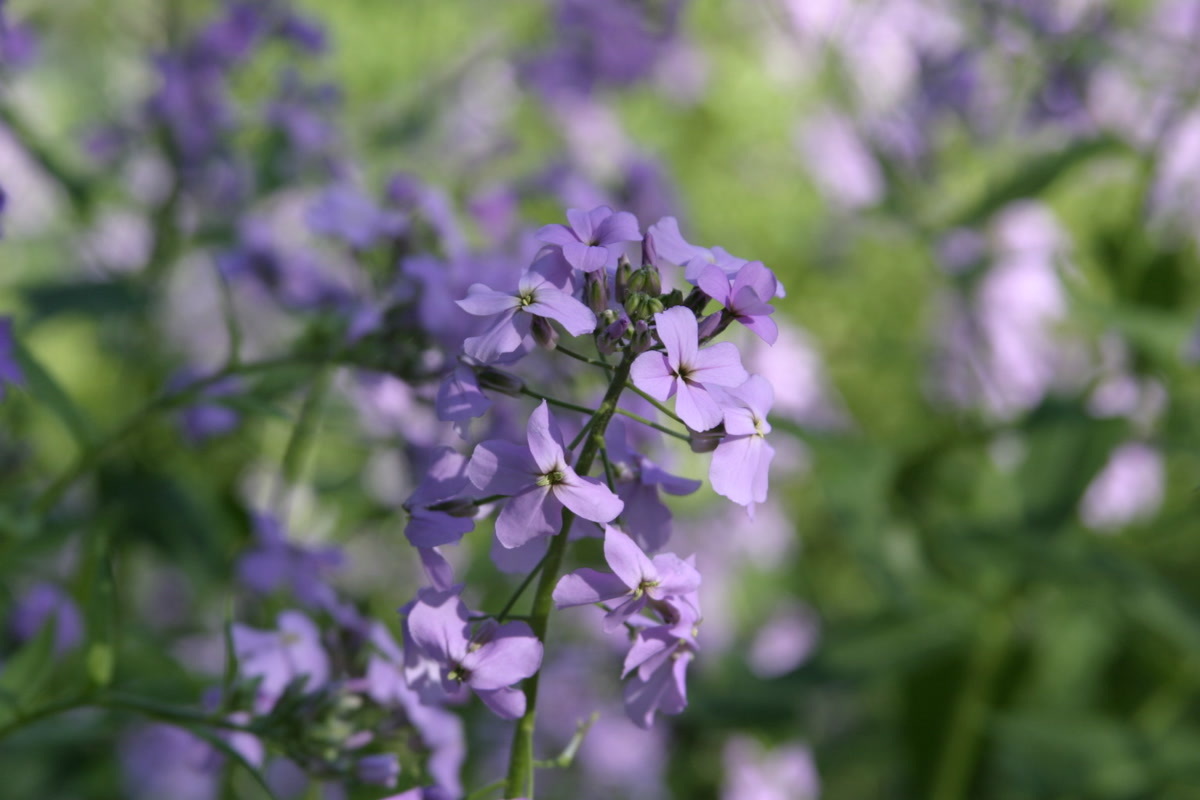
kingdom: Plantae
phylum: Tracheophyta
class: Magnoliopsida
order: Brassicales
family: Brassicaceae
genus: Hesperis
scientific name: Hesperis matronalis
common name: Dame's-violet
